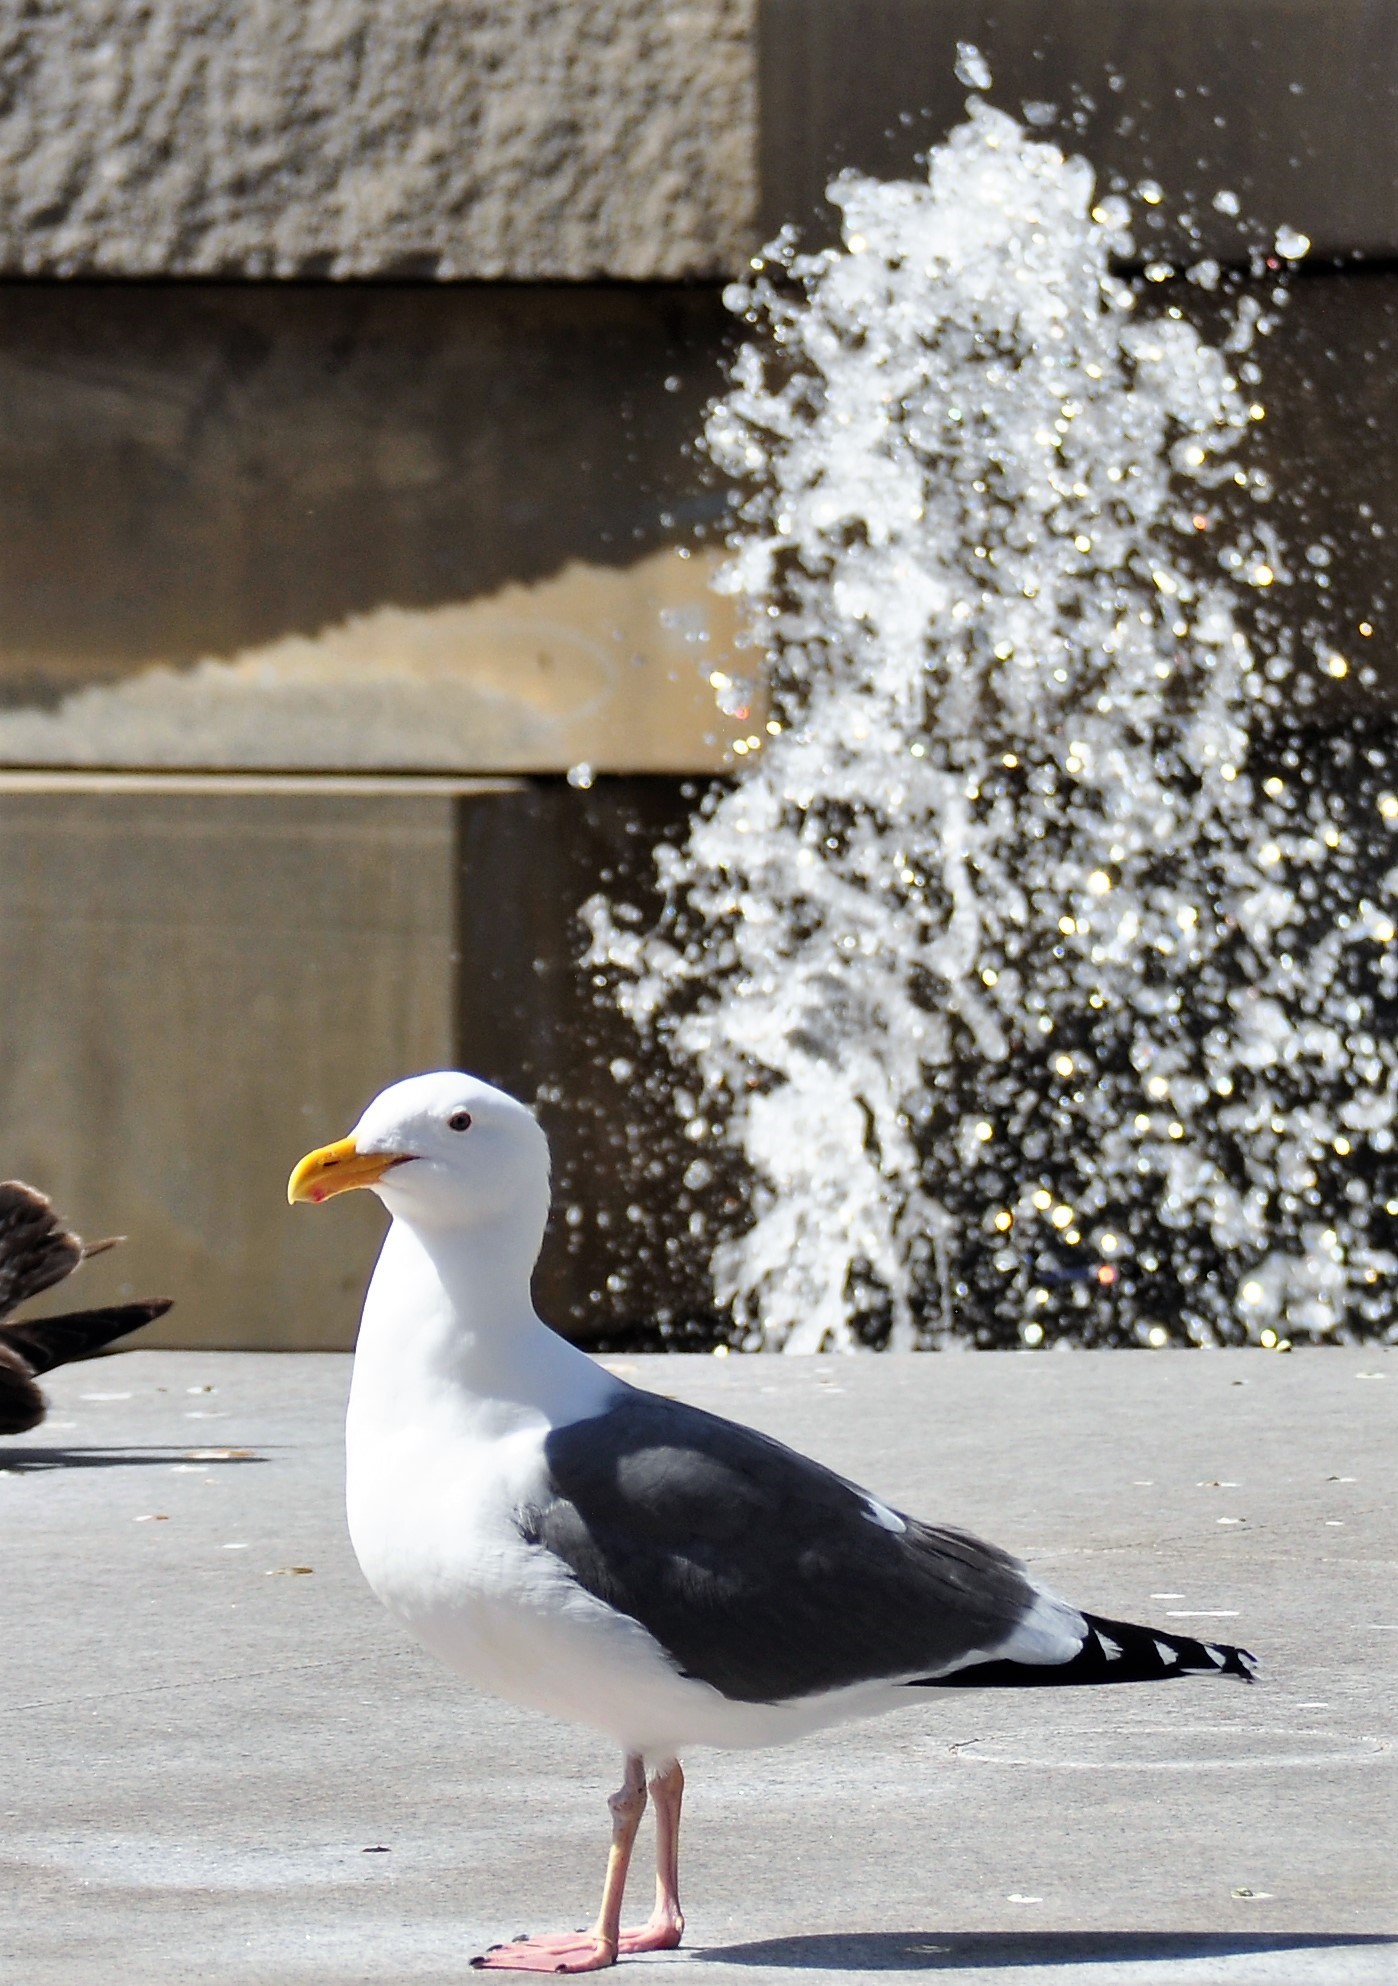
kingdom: Animalia
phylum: Chordata
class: Aves
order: Charadriiformes
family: Laridae
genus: Larus
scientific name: Larus occidentalis
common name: Western gull
